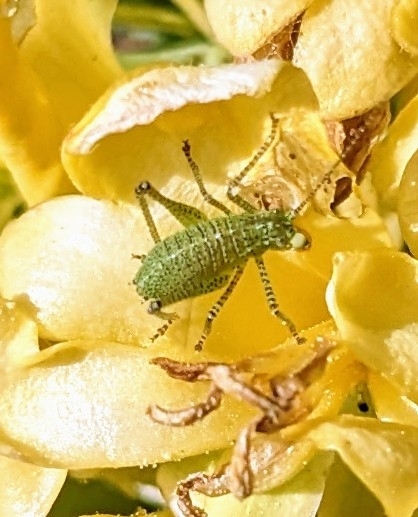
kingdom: Animalia
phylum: Arthropoda
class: Insecta
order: Orthoptera
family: Tettigoniidae
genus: Leptophyes
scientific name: Leptophyes punctatissima
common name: Speckled bush-cricket
